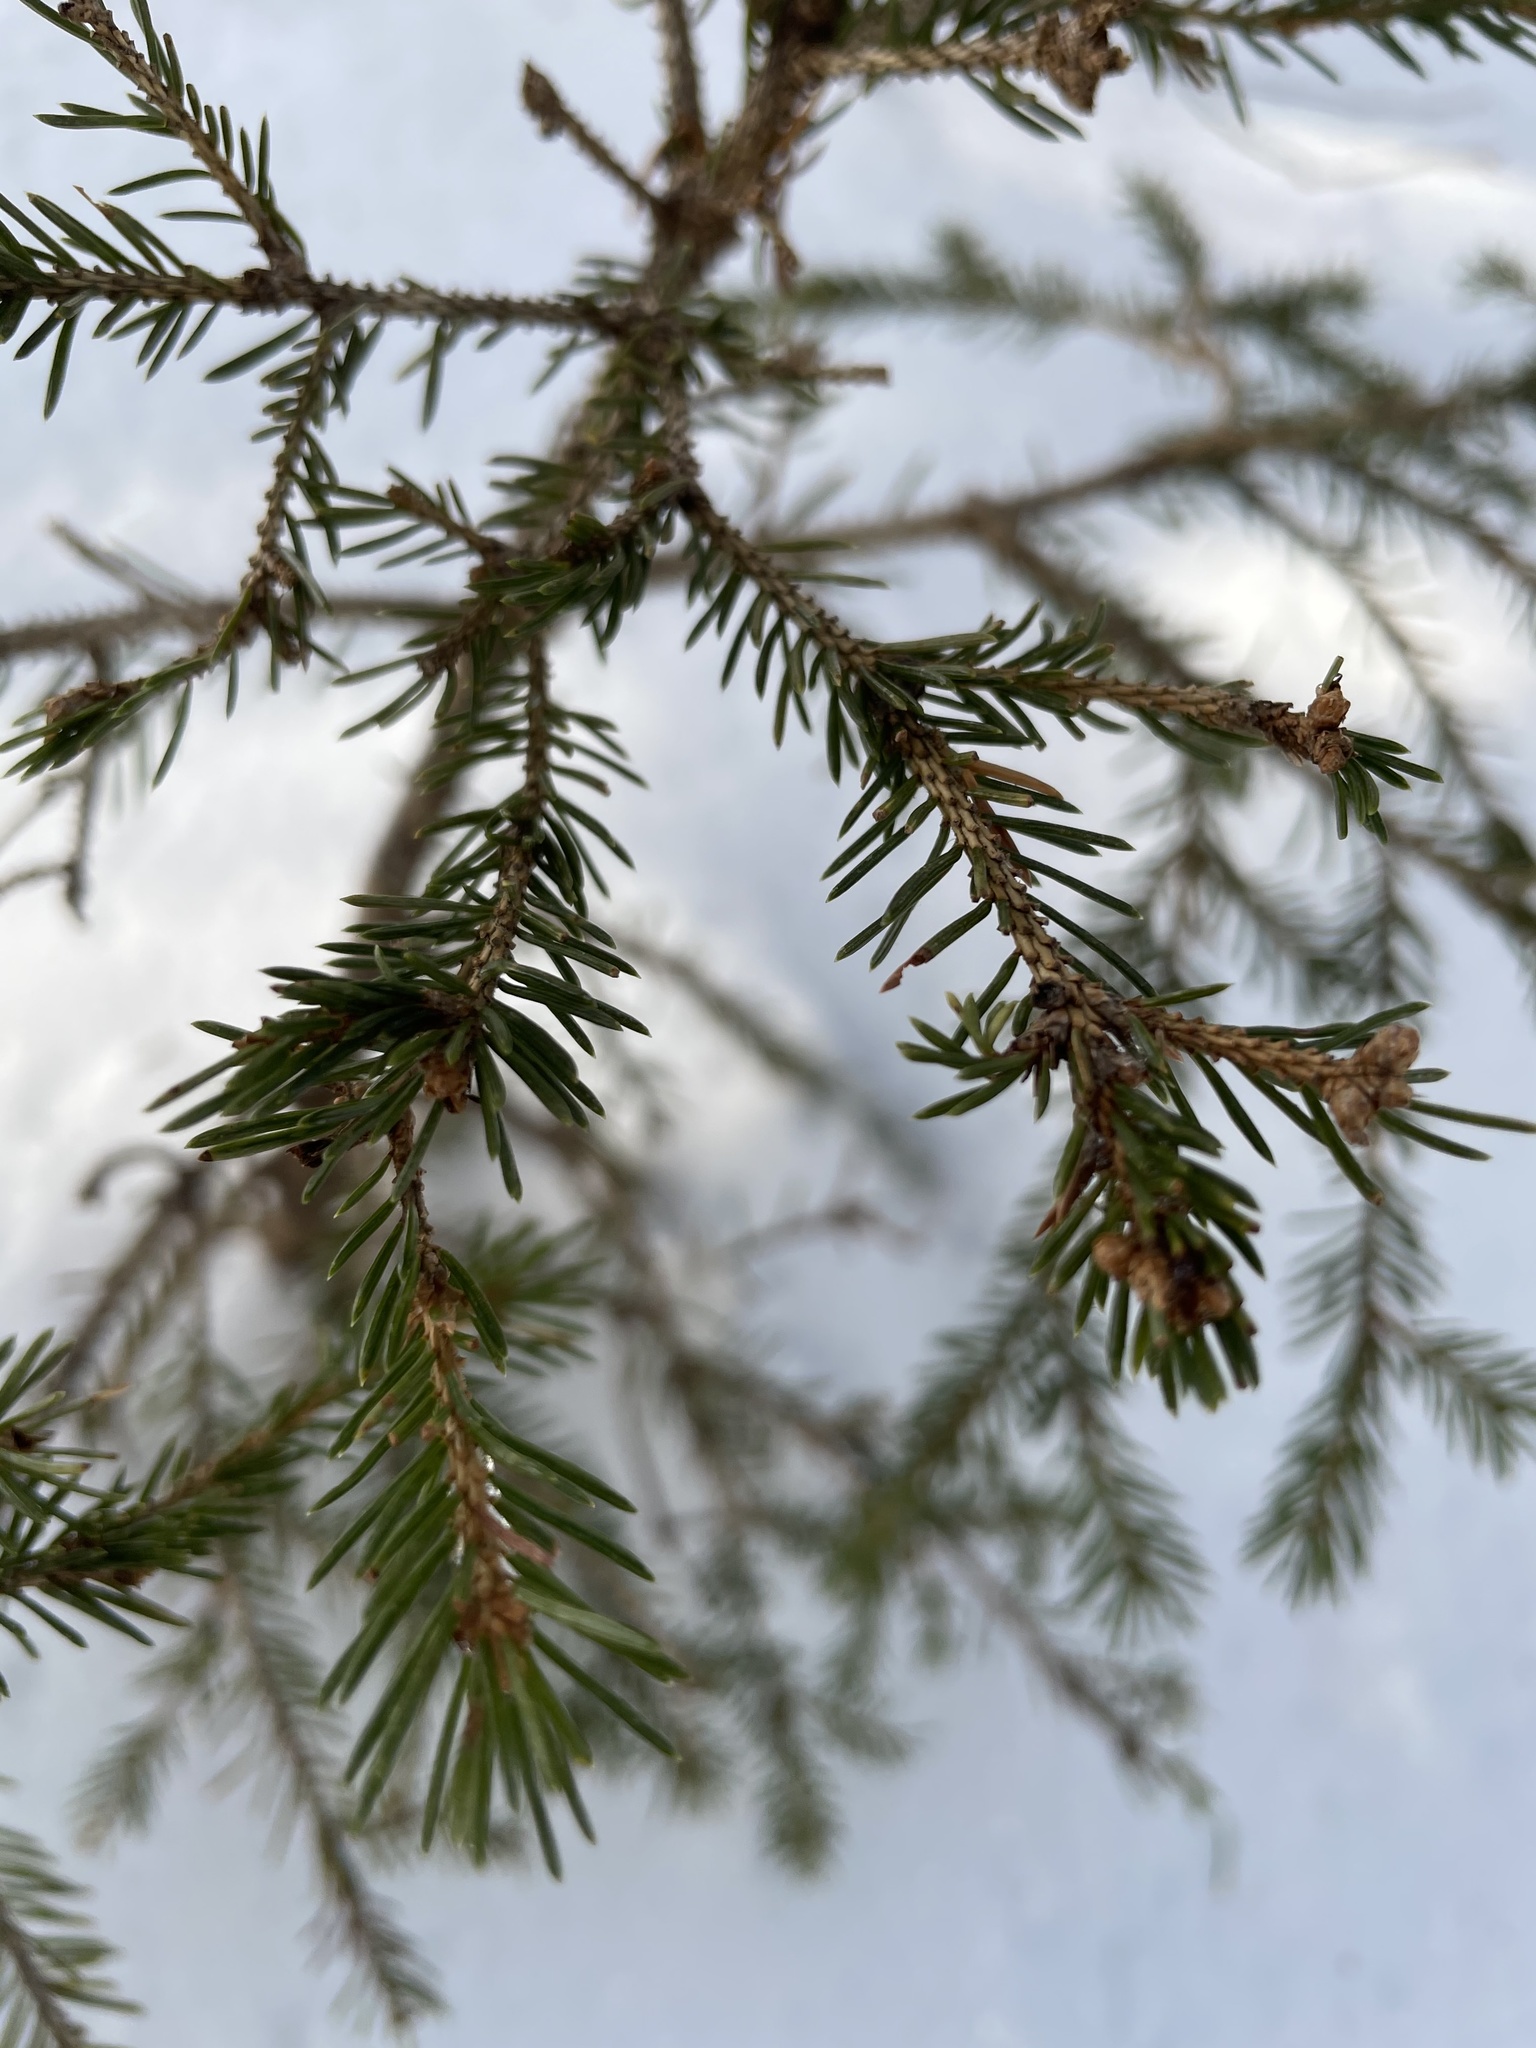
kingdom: Plantae
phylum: Tracheophyta
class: Pinopsida
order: Pinales
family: Pinaceae
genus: Picea
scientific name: Picea glauca
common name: White spruce
